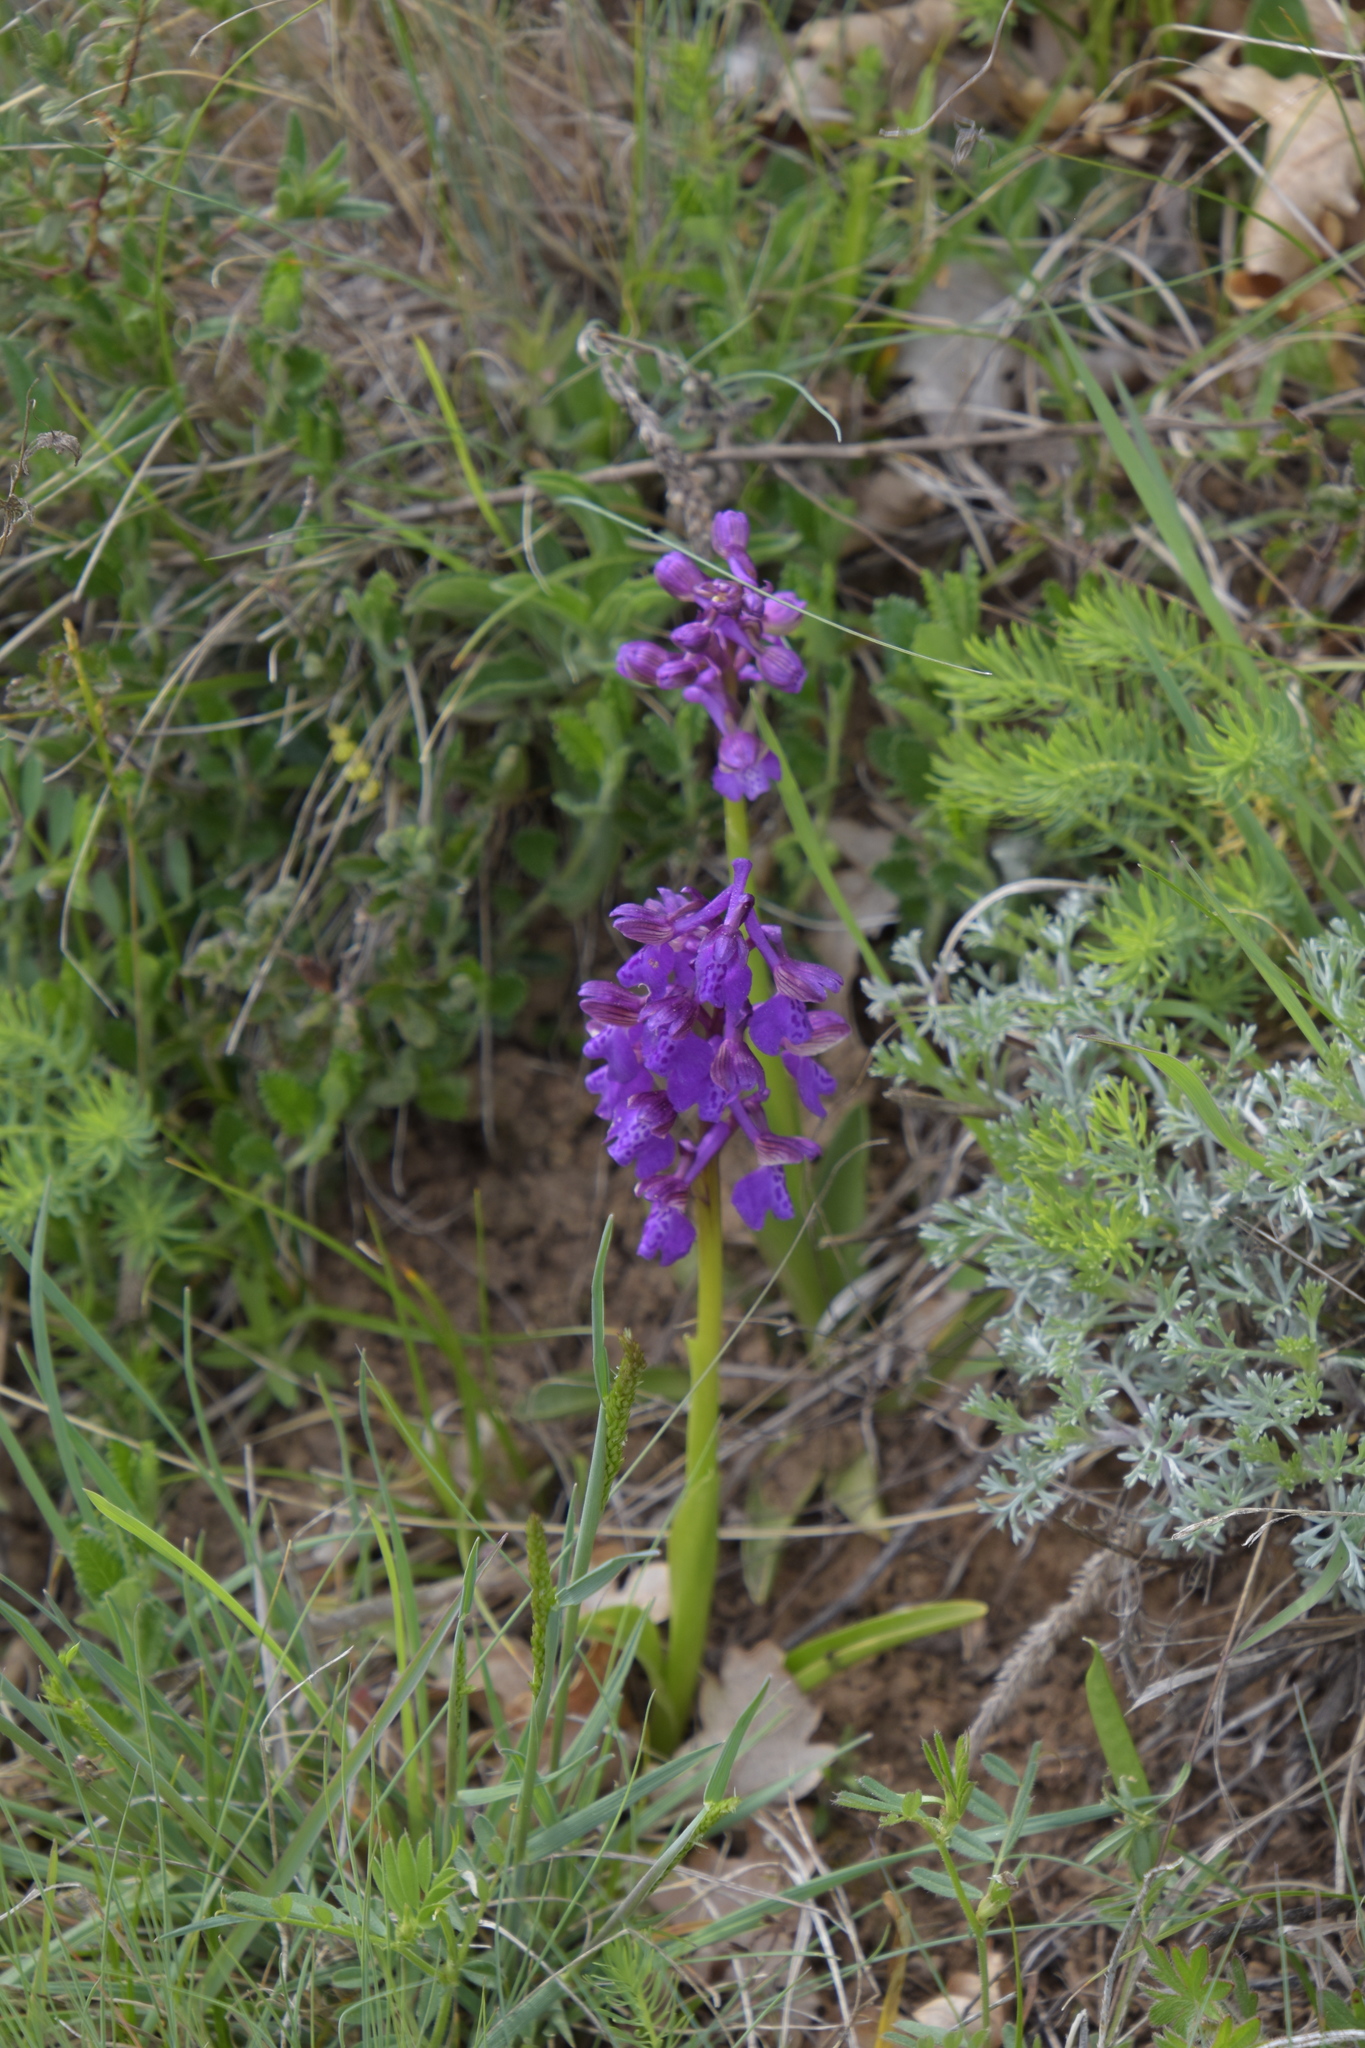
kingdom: Plantae
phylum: Tracheophyta
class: Liliopsida
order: Asparagales
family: Orchidaceae
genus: Anacamptis
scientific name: Anacamptis morio
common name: Green-winged orchid
